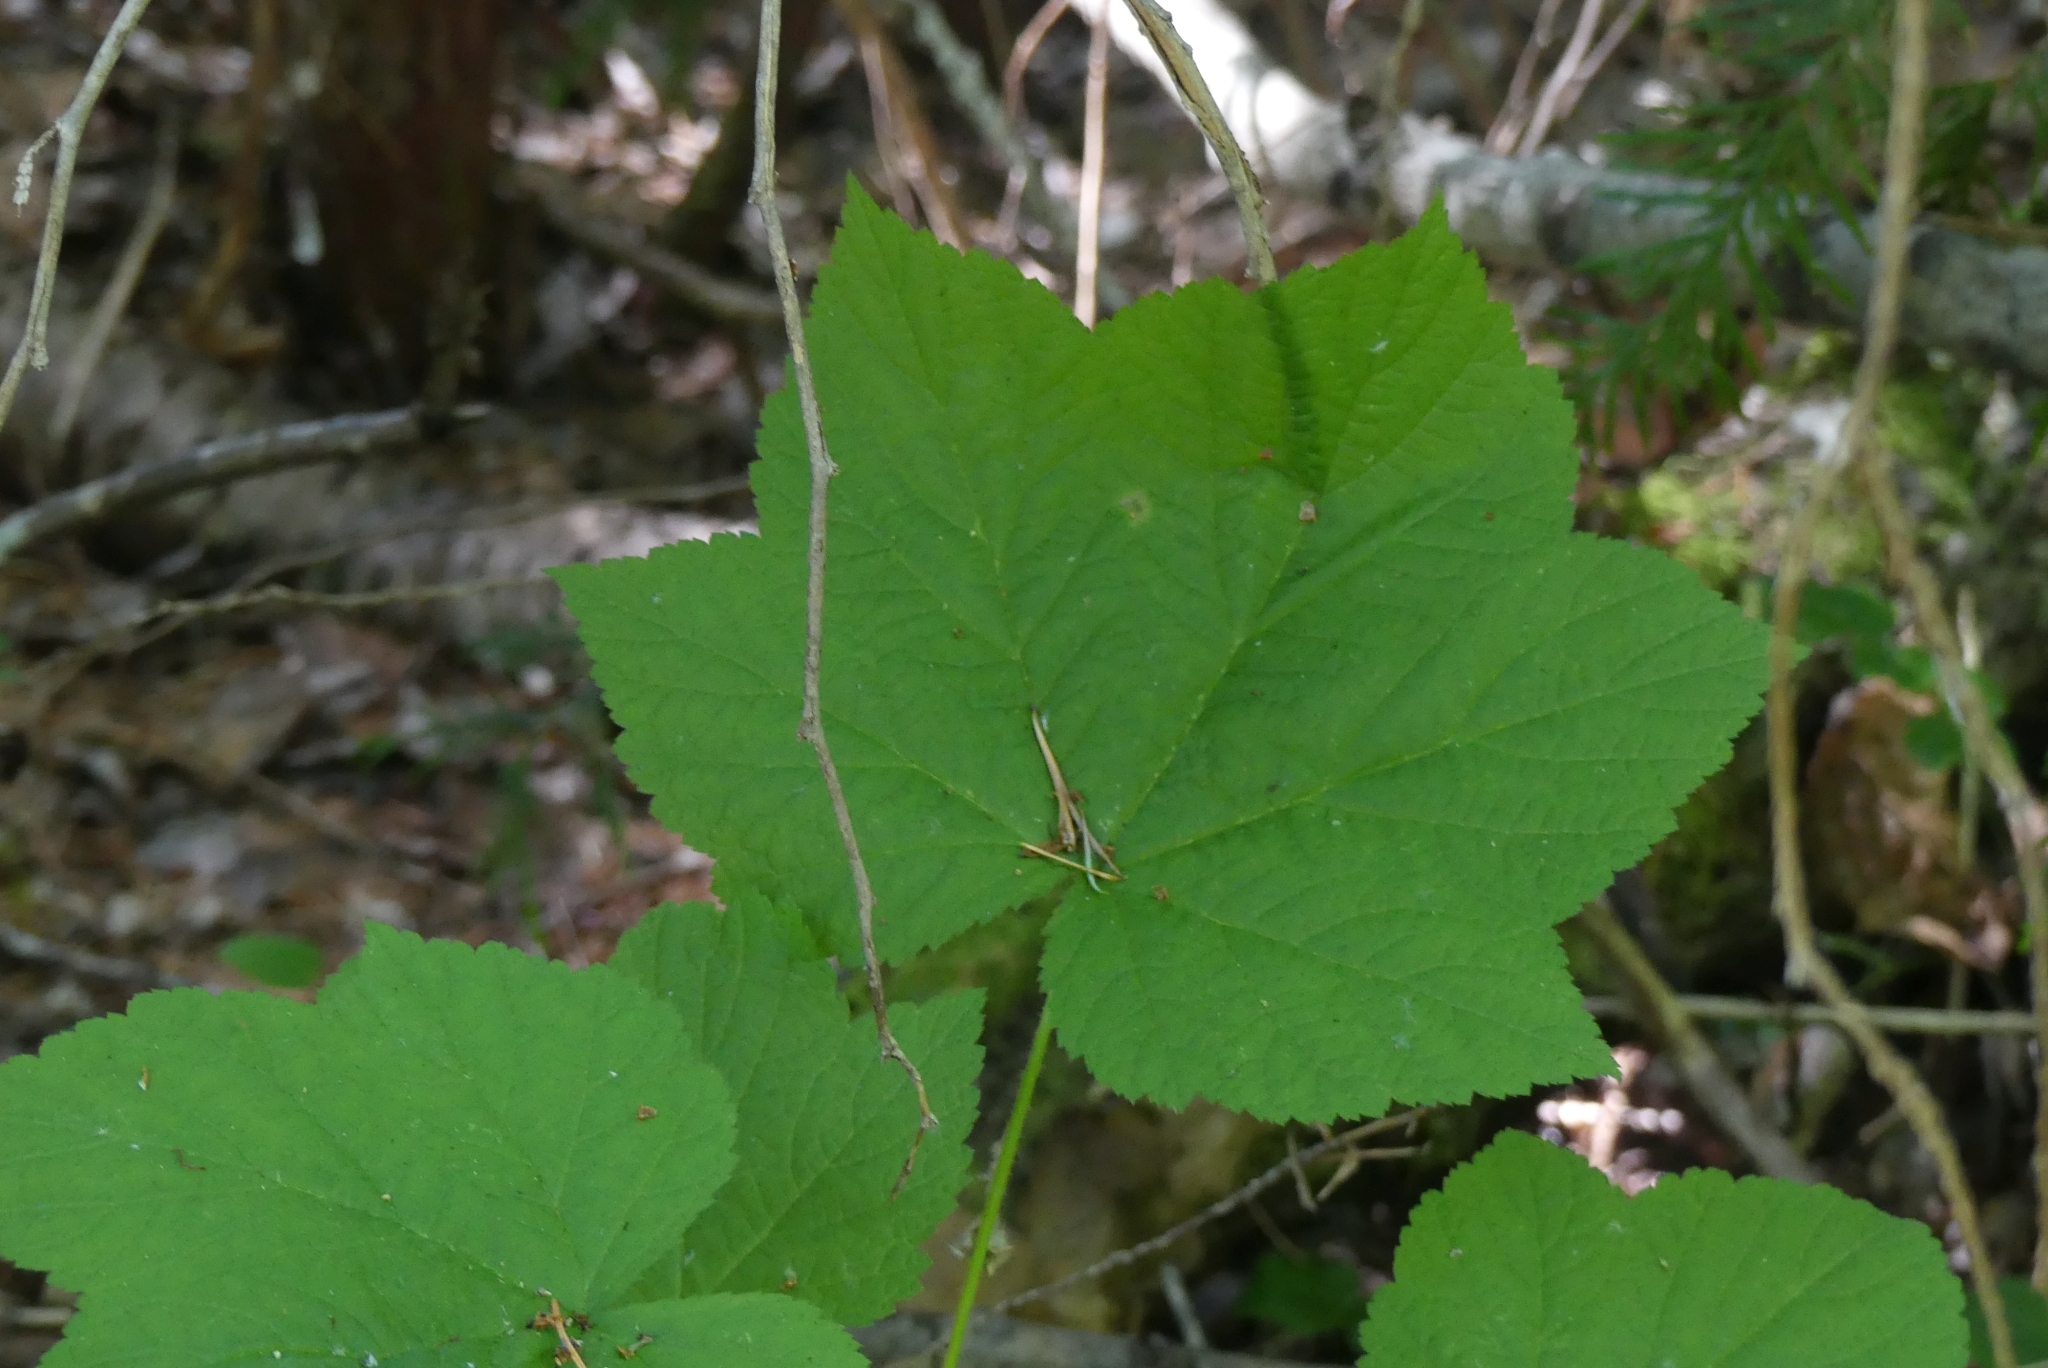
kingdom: Plantae
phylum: Tracheophyta
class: Magnoliopsida
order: Rosales
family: Rosaceae
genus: Rubus
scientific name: Rubus parviflorus
